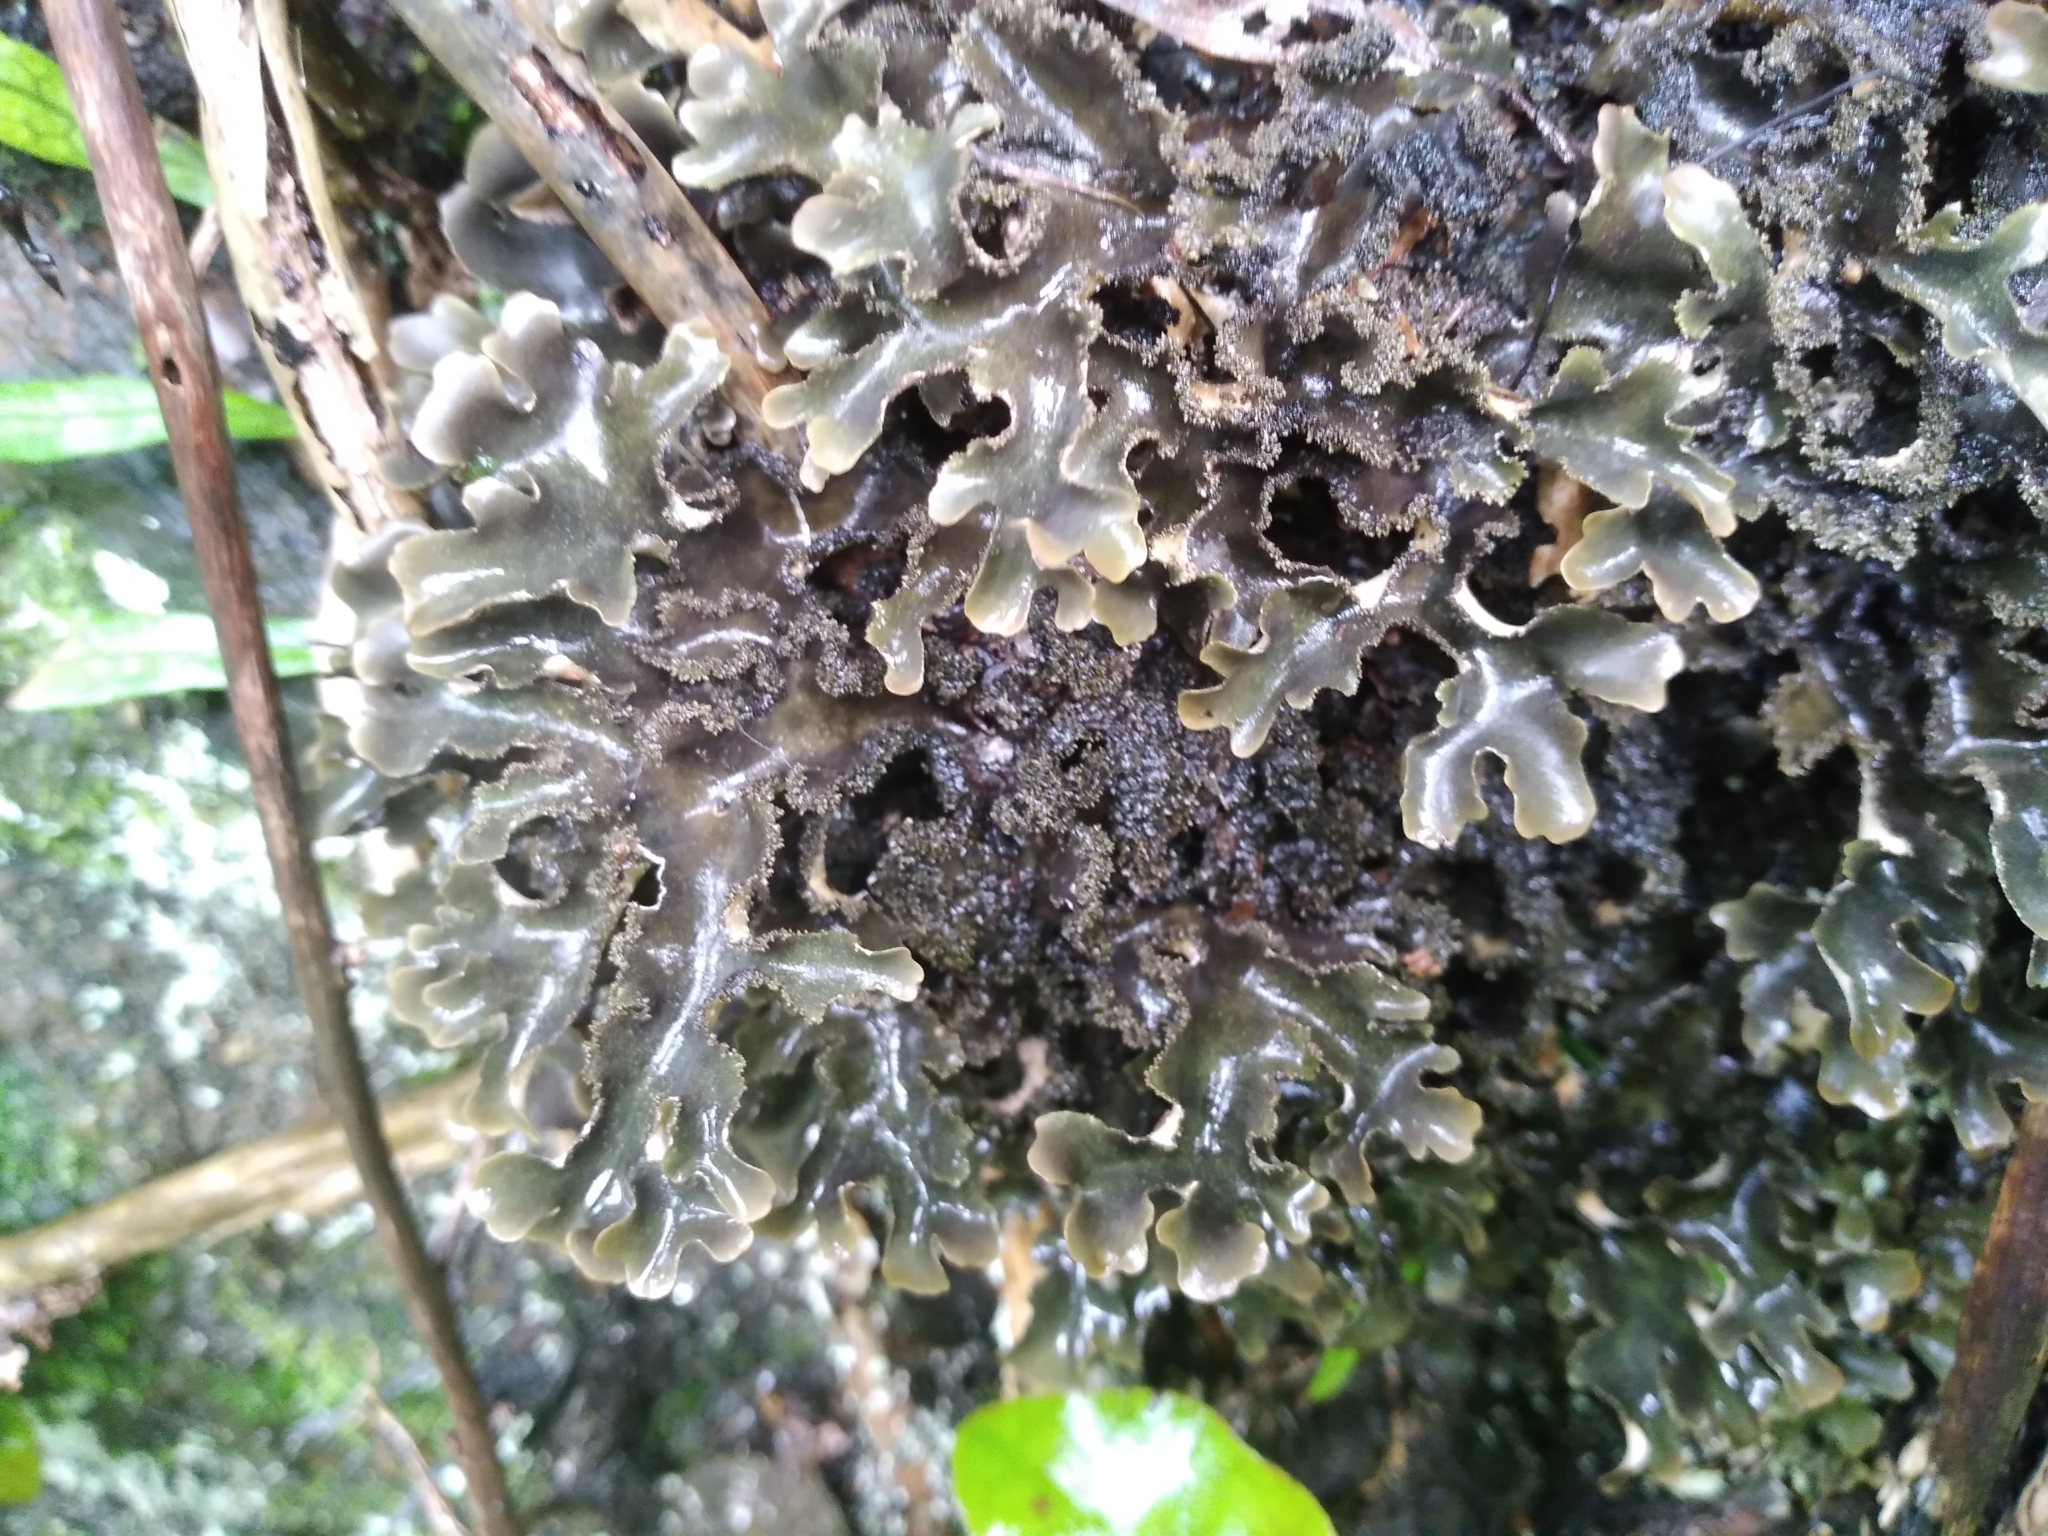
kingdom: Fungi
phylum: Ascomycota
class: Lecanoromycetes
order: Peltigerales
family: Lobariaceae
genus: Pseudocyphellaria
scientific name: Pseudocyphellaria dissimilis
